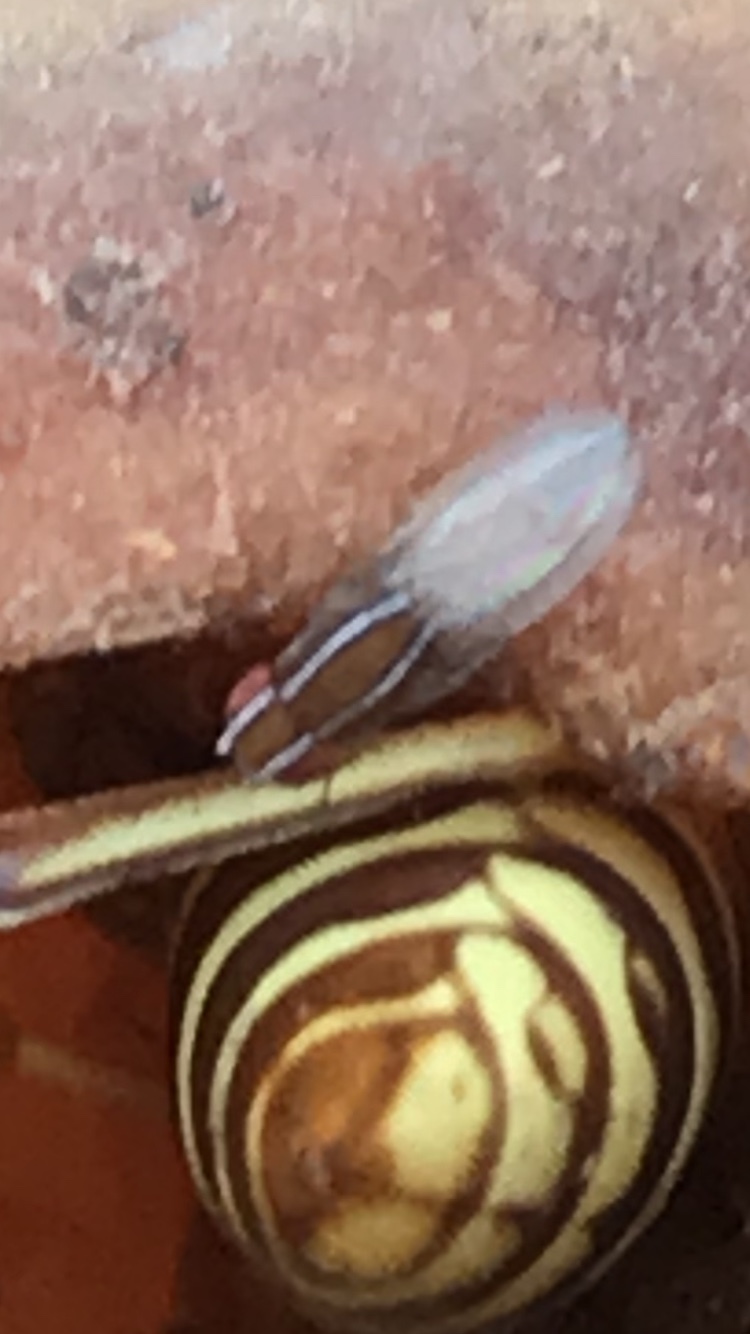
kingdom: Animalia
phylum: Arthropoda
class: Insecta
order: Diptera
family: Drosophilidae
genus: Zaprionus
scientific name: Zaprionus indianus
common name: African fig fly
